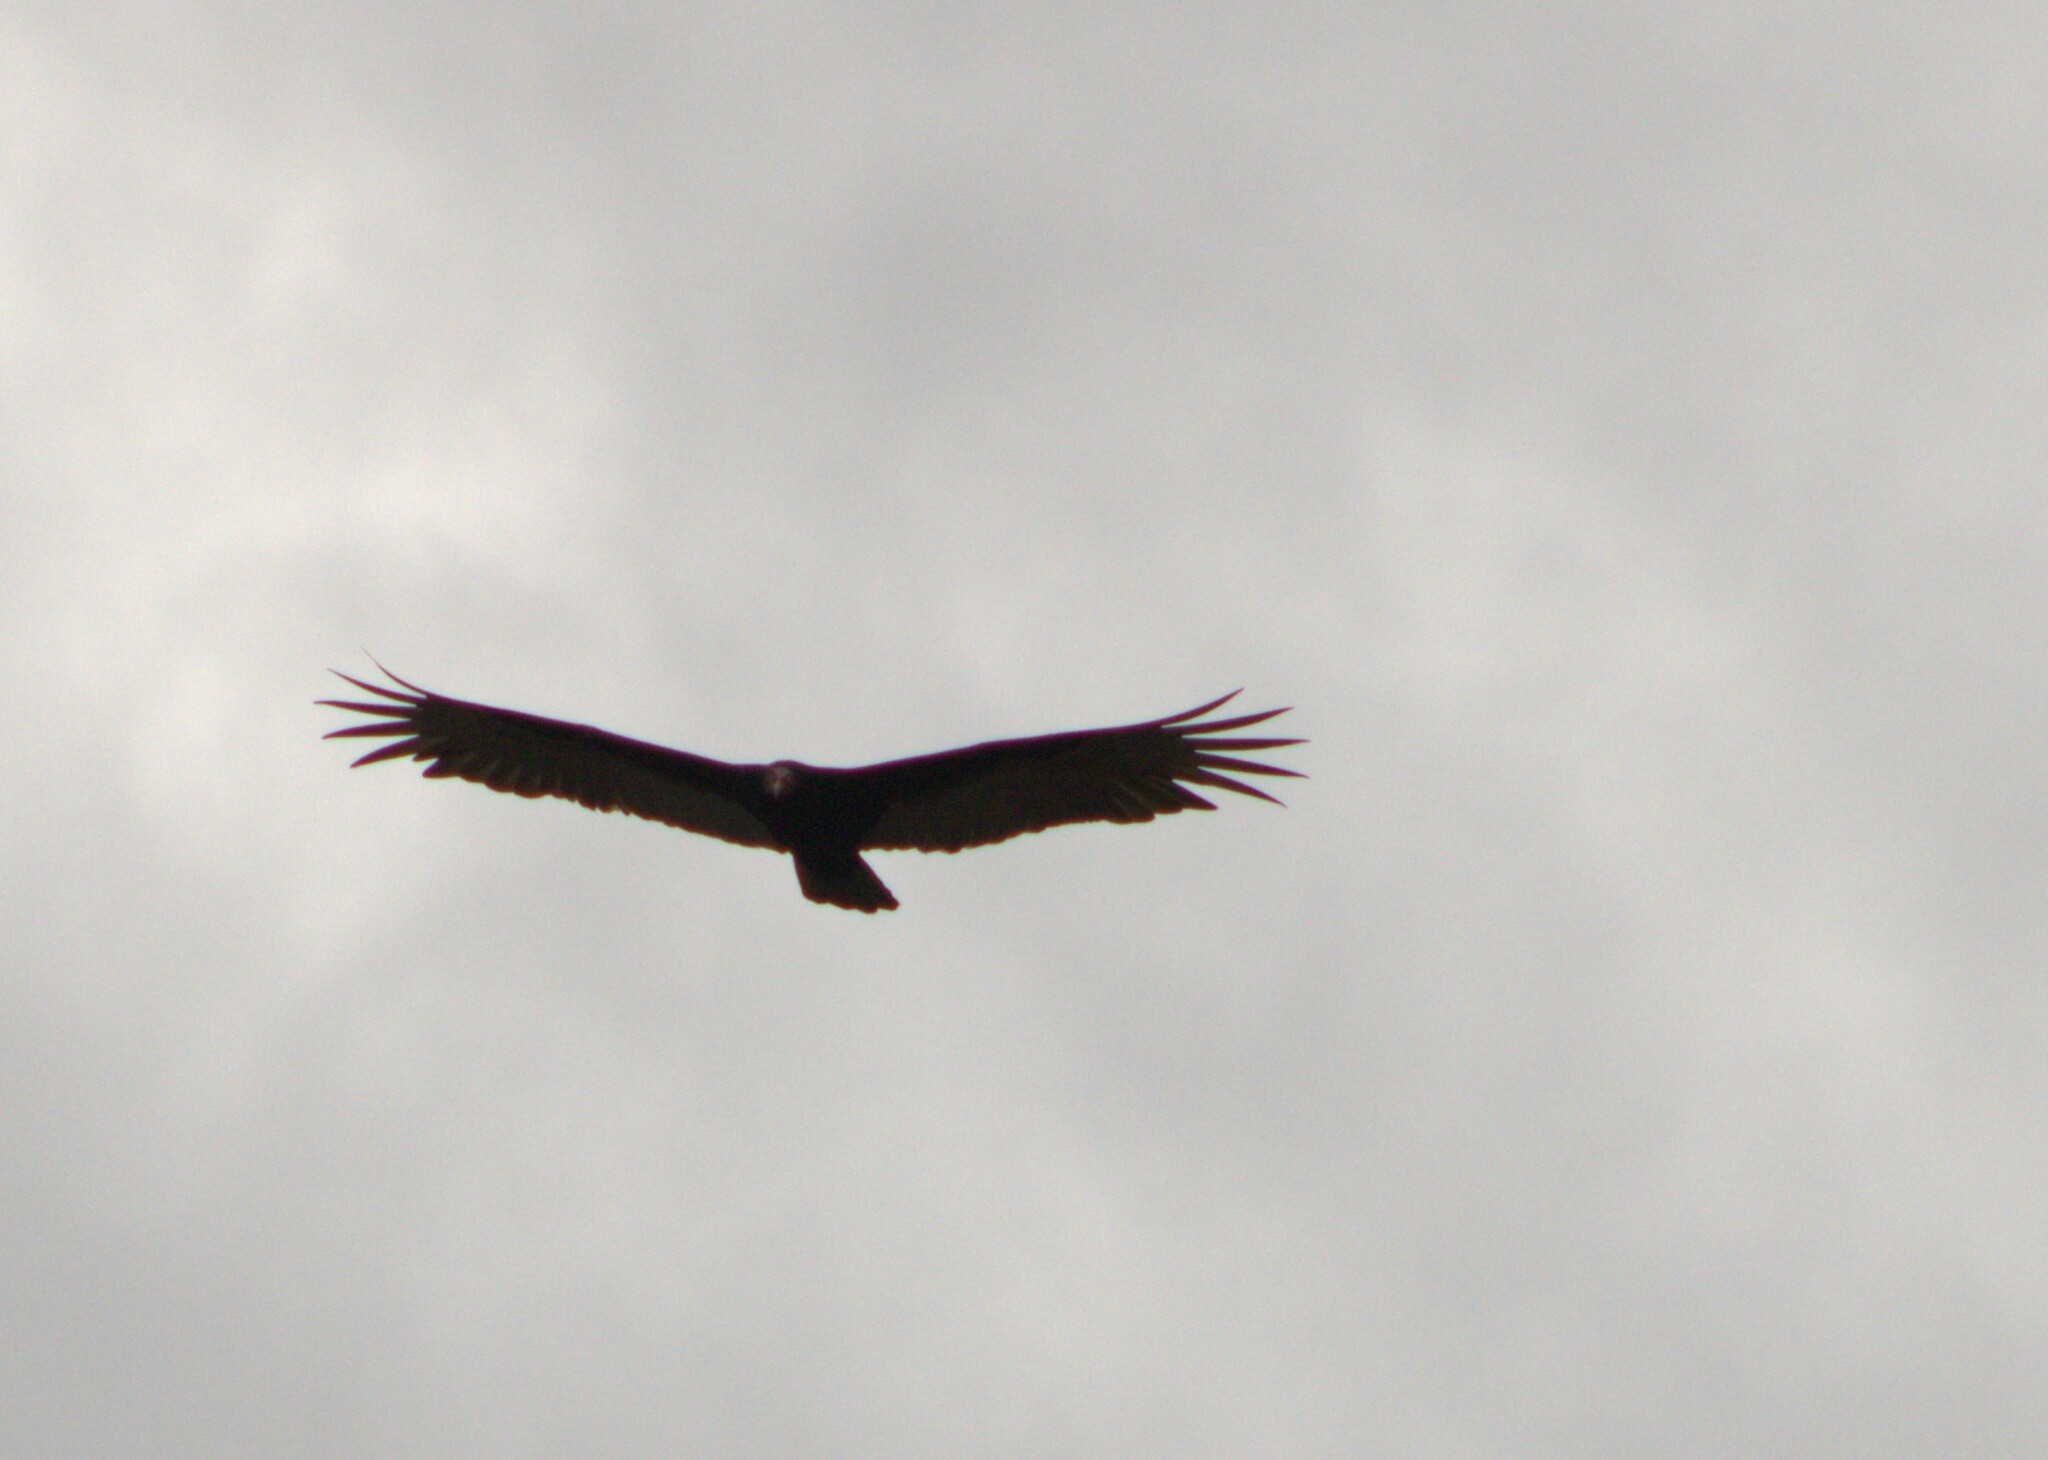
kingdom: Animalia
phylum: Chordata
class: Aves
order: Accipitriformes
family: Cathartidae
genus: Cathartes
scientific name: Cathartes aura
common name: Turkey vulture
